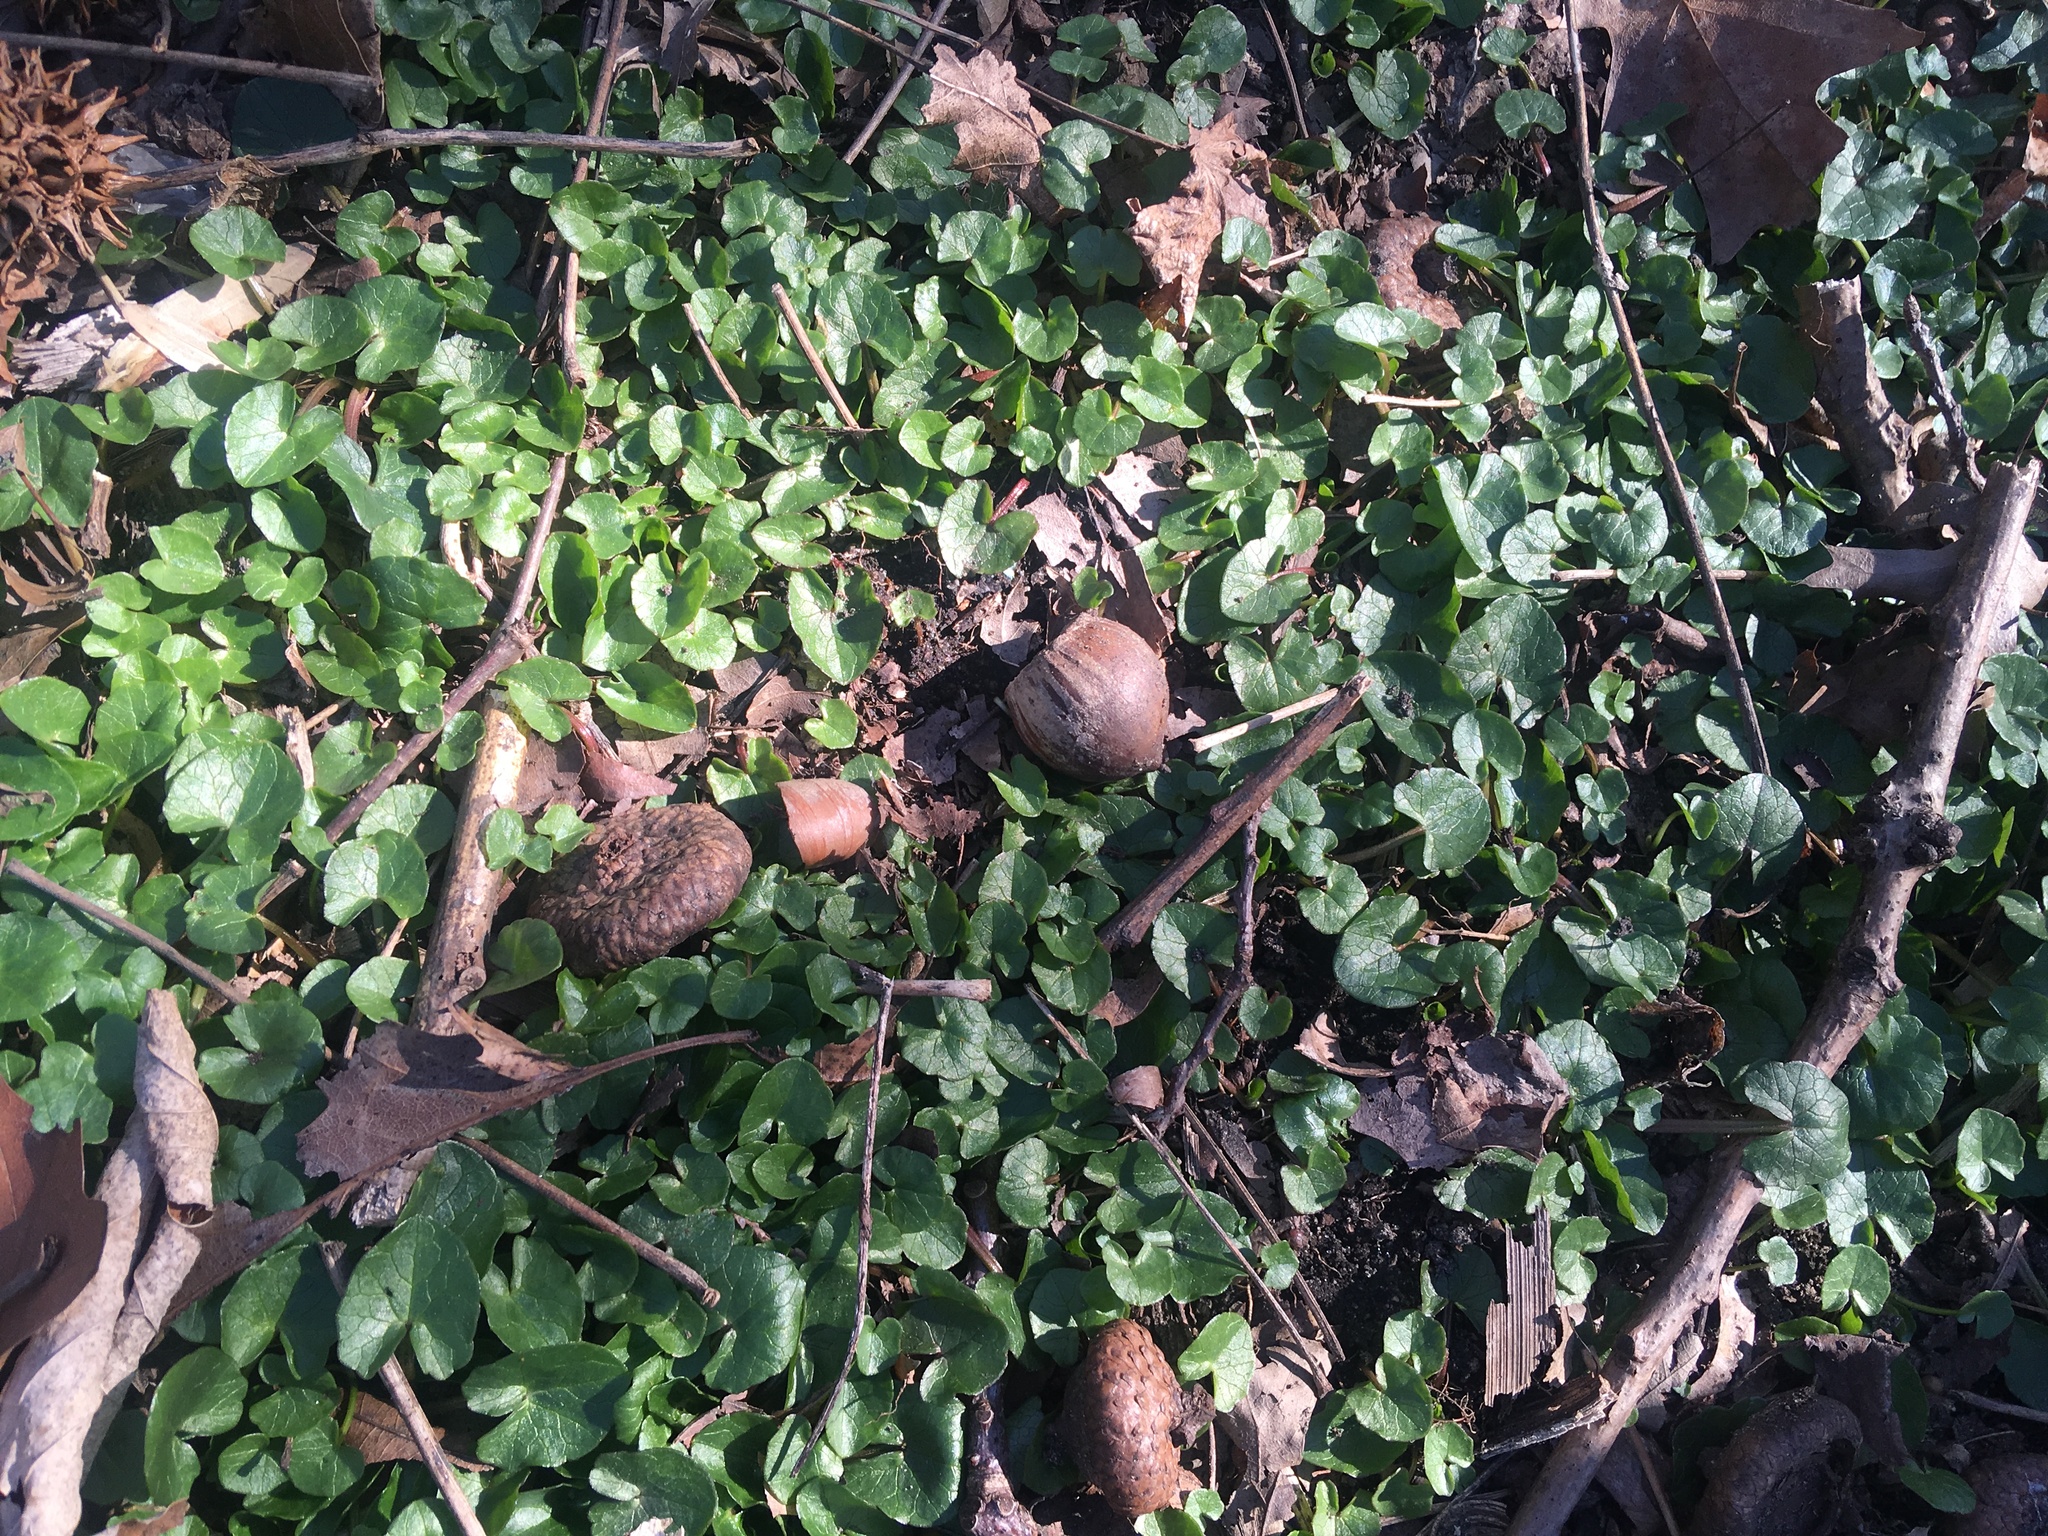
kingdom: Plantae
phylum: Tracheophyta
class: Magnoliopsida
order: Ranunculales
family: Ranunculaceae
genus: Ficaria
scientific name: Ficaria verna
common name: Lesser celandine
